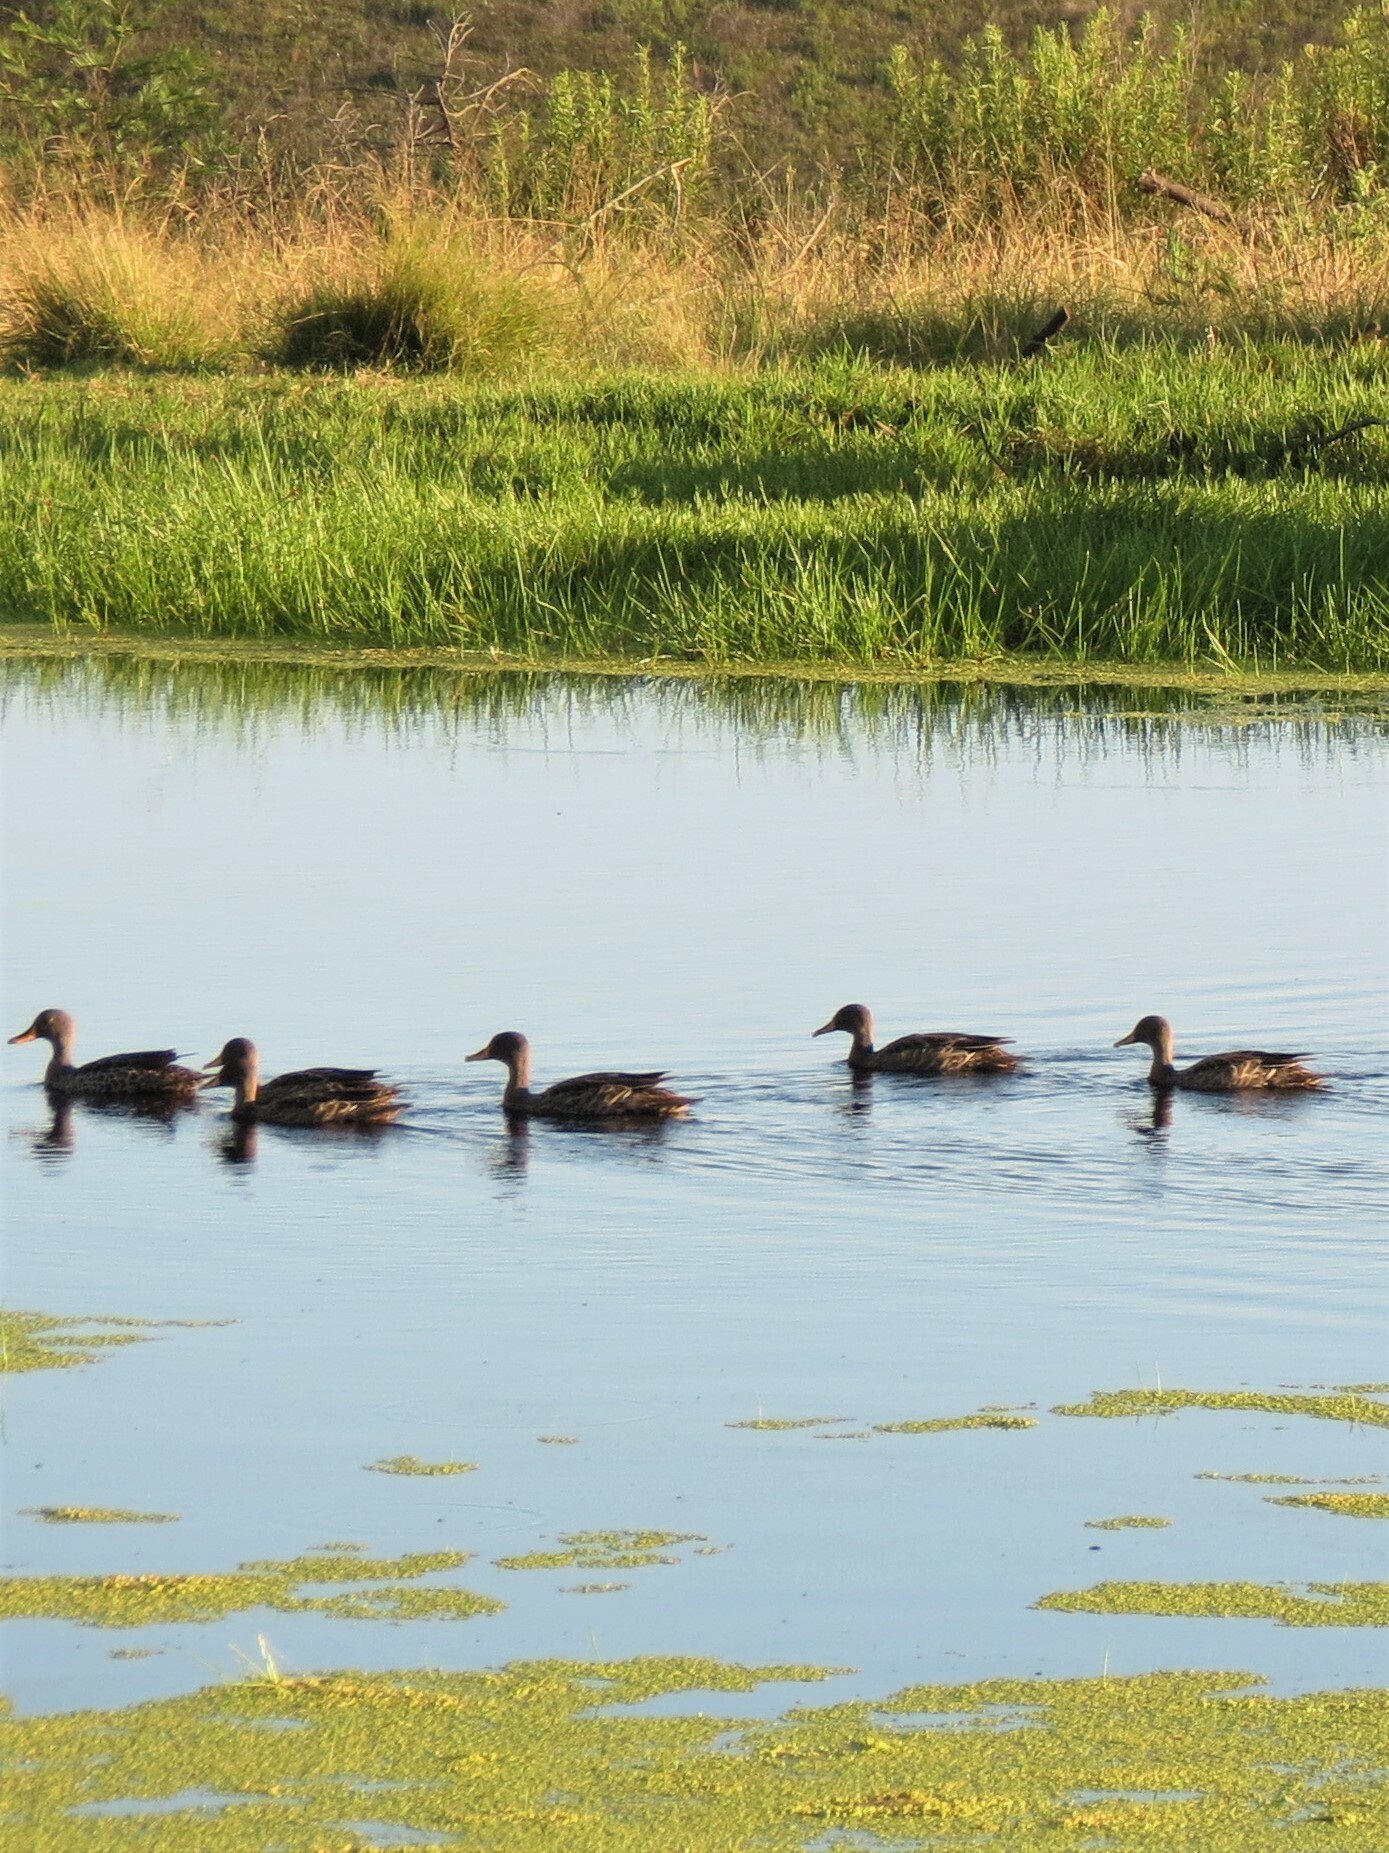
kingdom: Animalia
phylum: Chordata
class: Aves
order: Anseriformes
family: Anatidae
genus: Anas
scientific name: Anas undulata
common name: Yellow-billed duck
